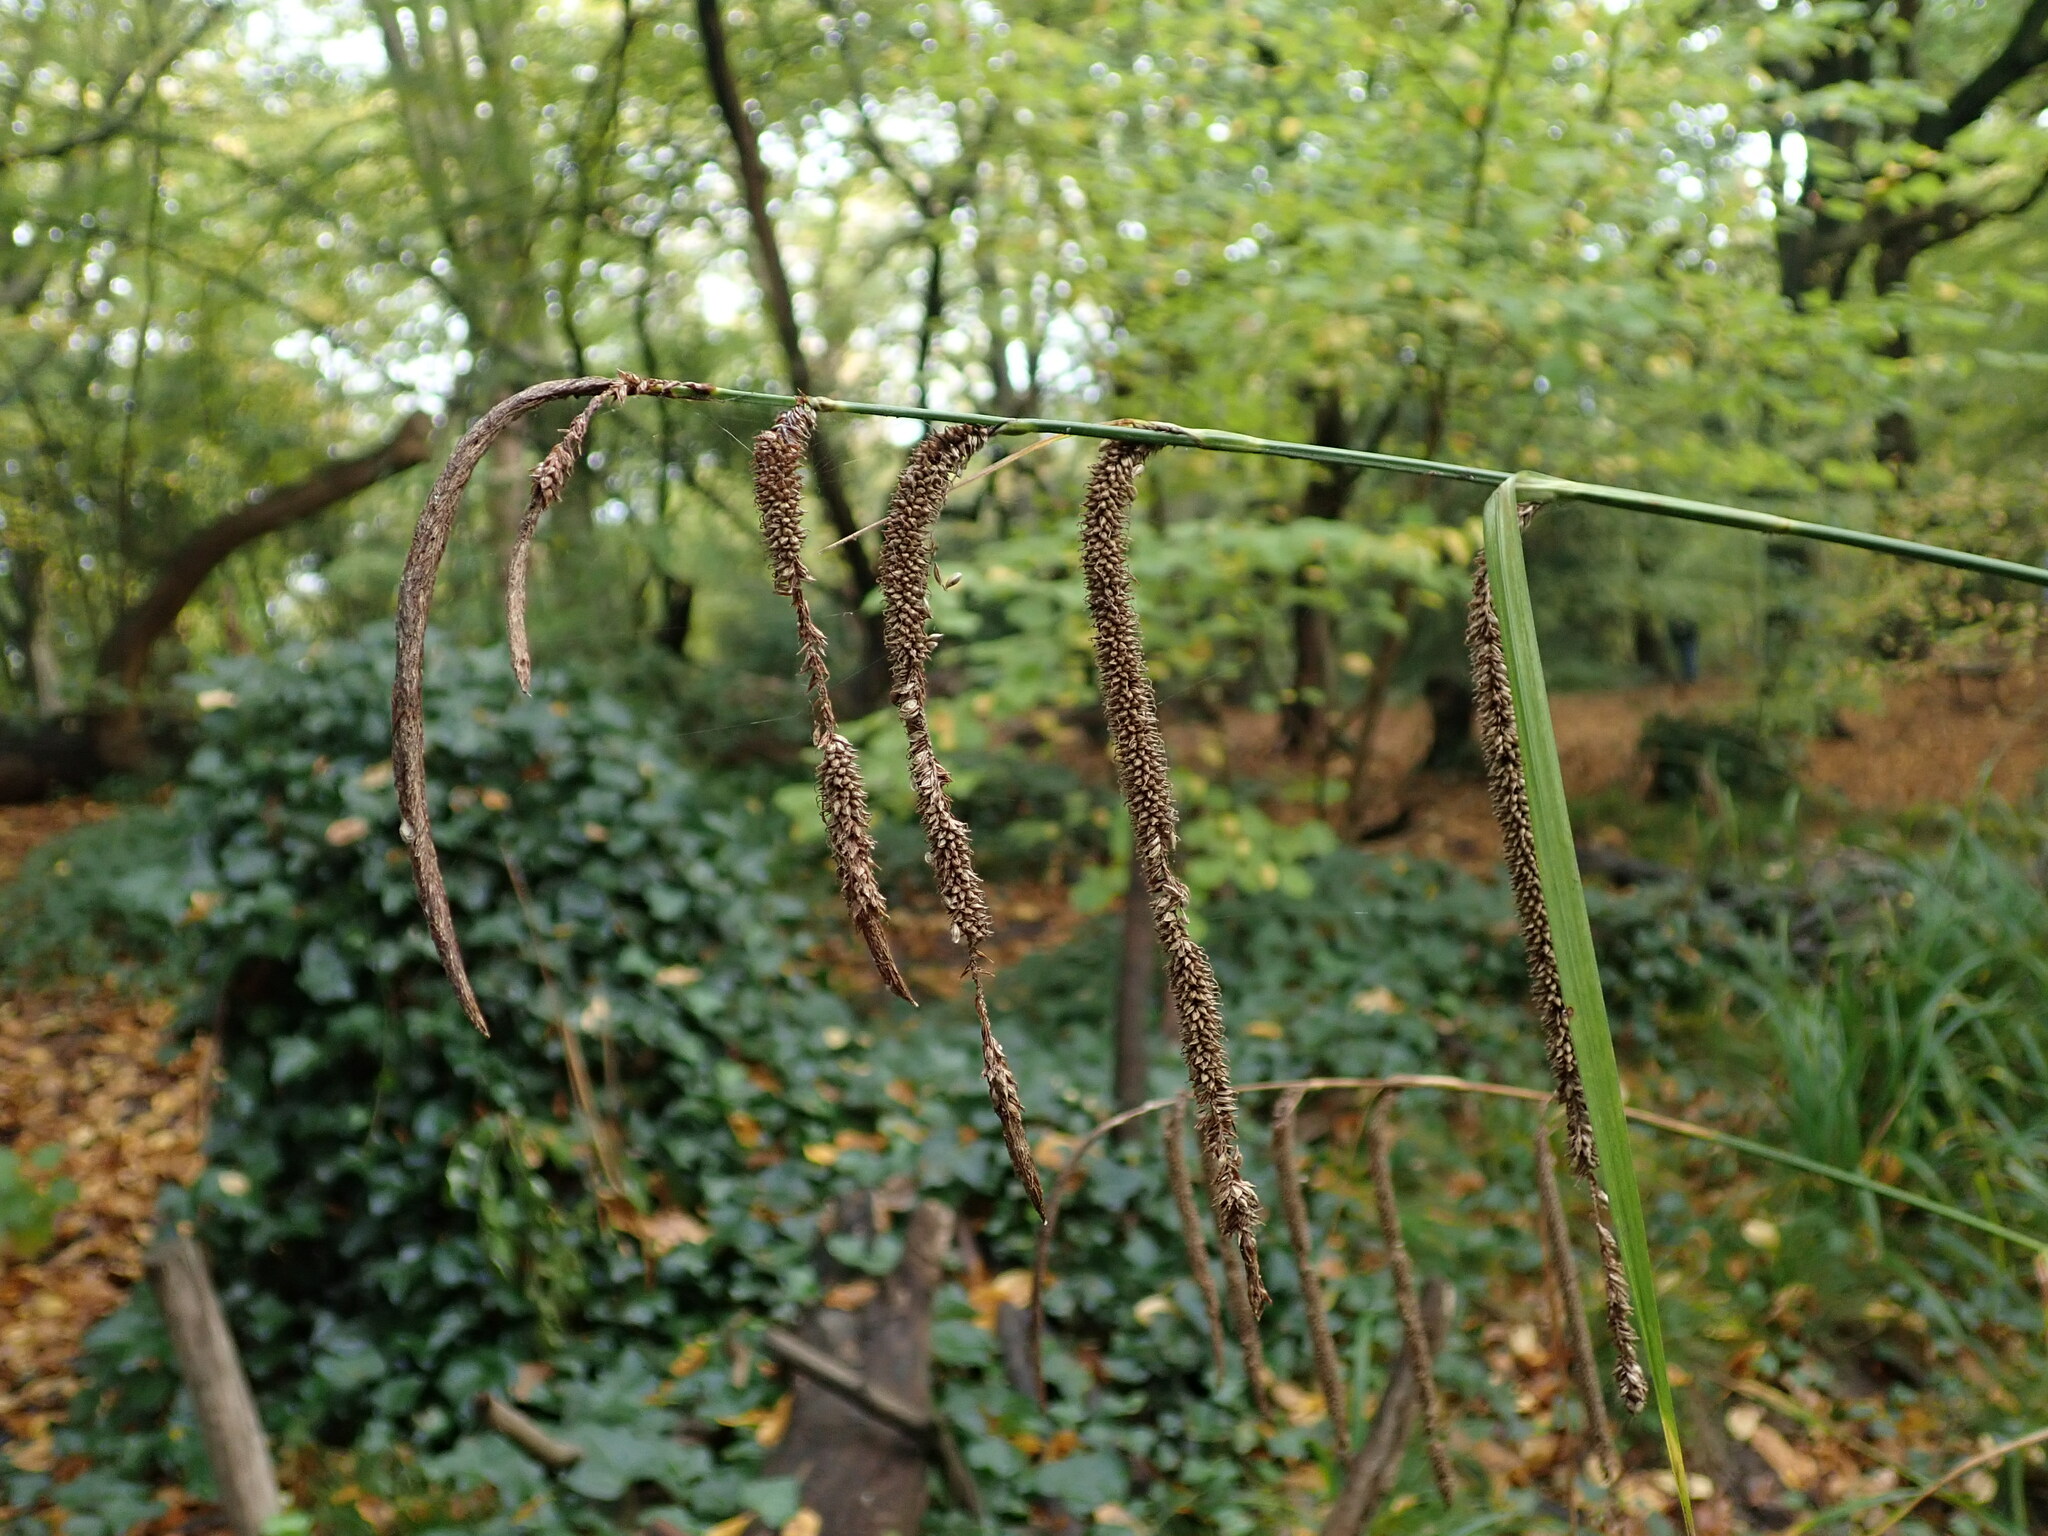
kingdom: Plantae
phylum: Tracheophyta
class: Liliopsida
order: Poales
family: Cyperaceae
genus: Carex
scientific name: Carex pendula
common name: Pendulous sedge
